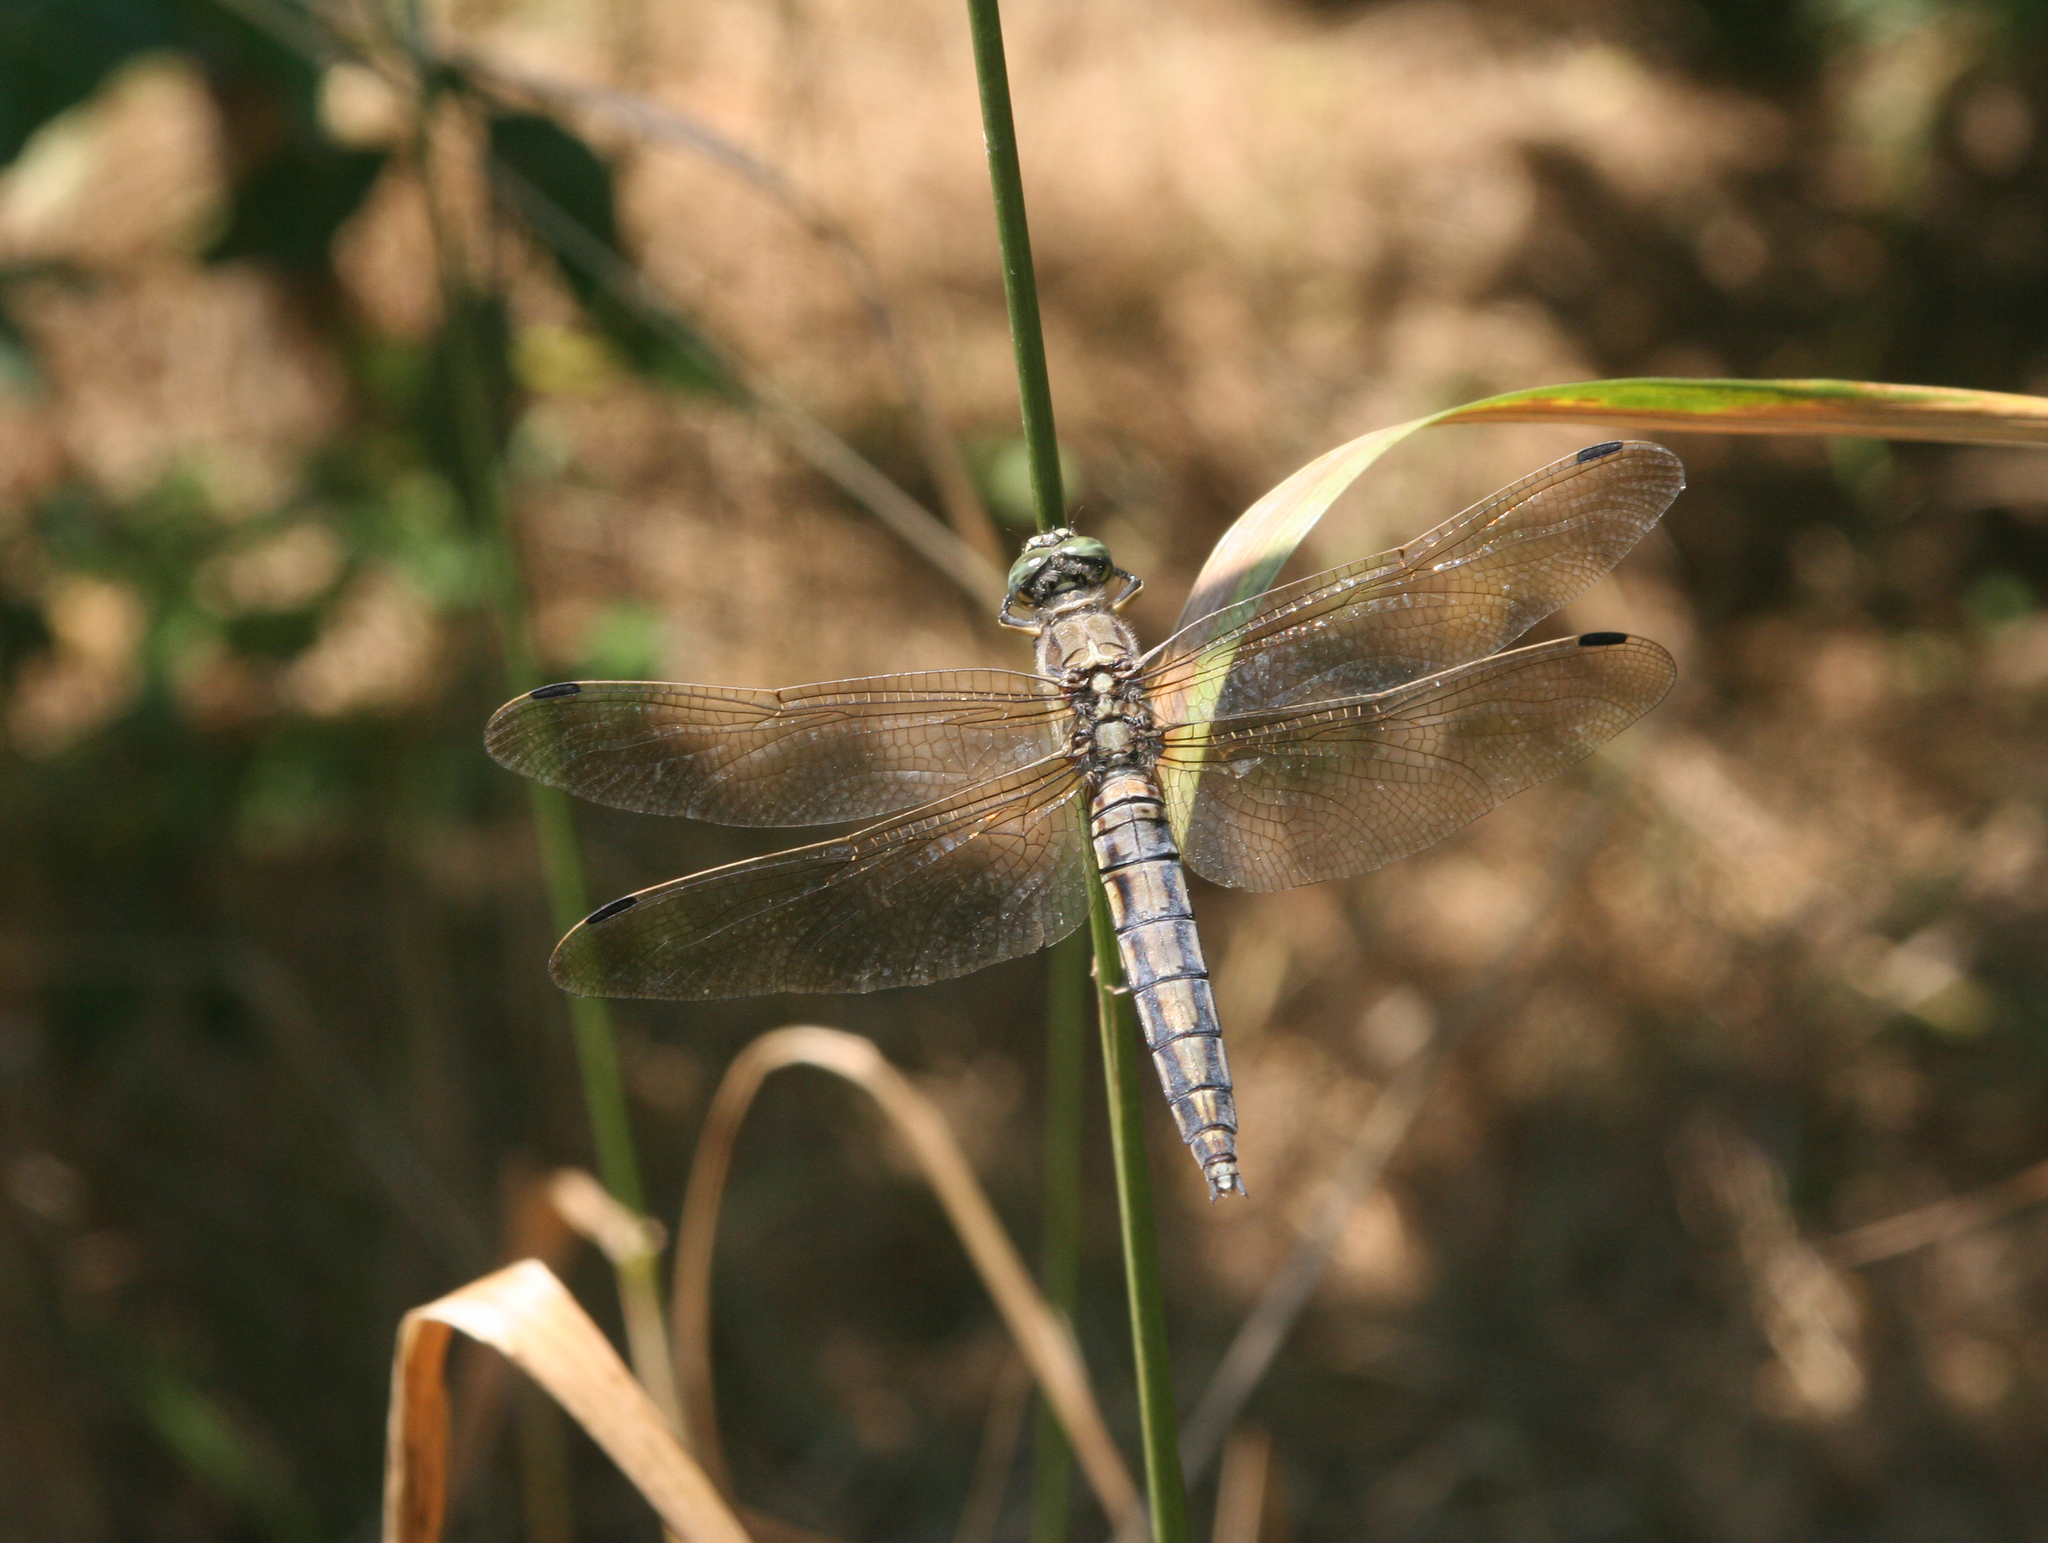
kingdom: Animalia
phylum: Arthropoda
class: Insecta
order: Odonata
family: Libellulidae
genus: Orthetrum
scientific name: Orthetrum cancellatum
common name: Black-tailed skimmer
